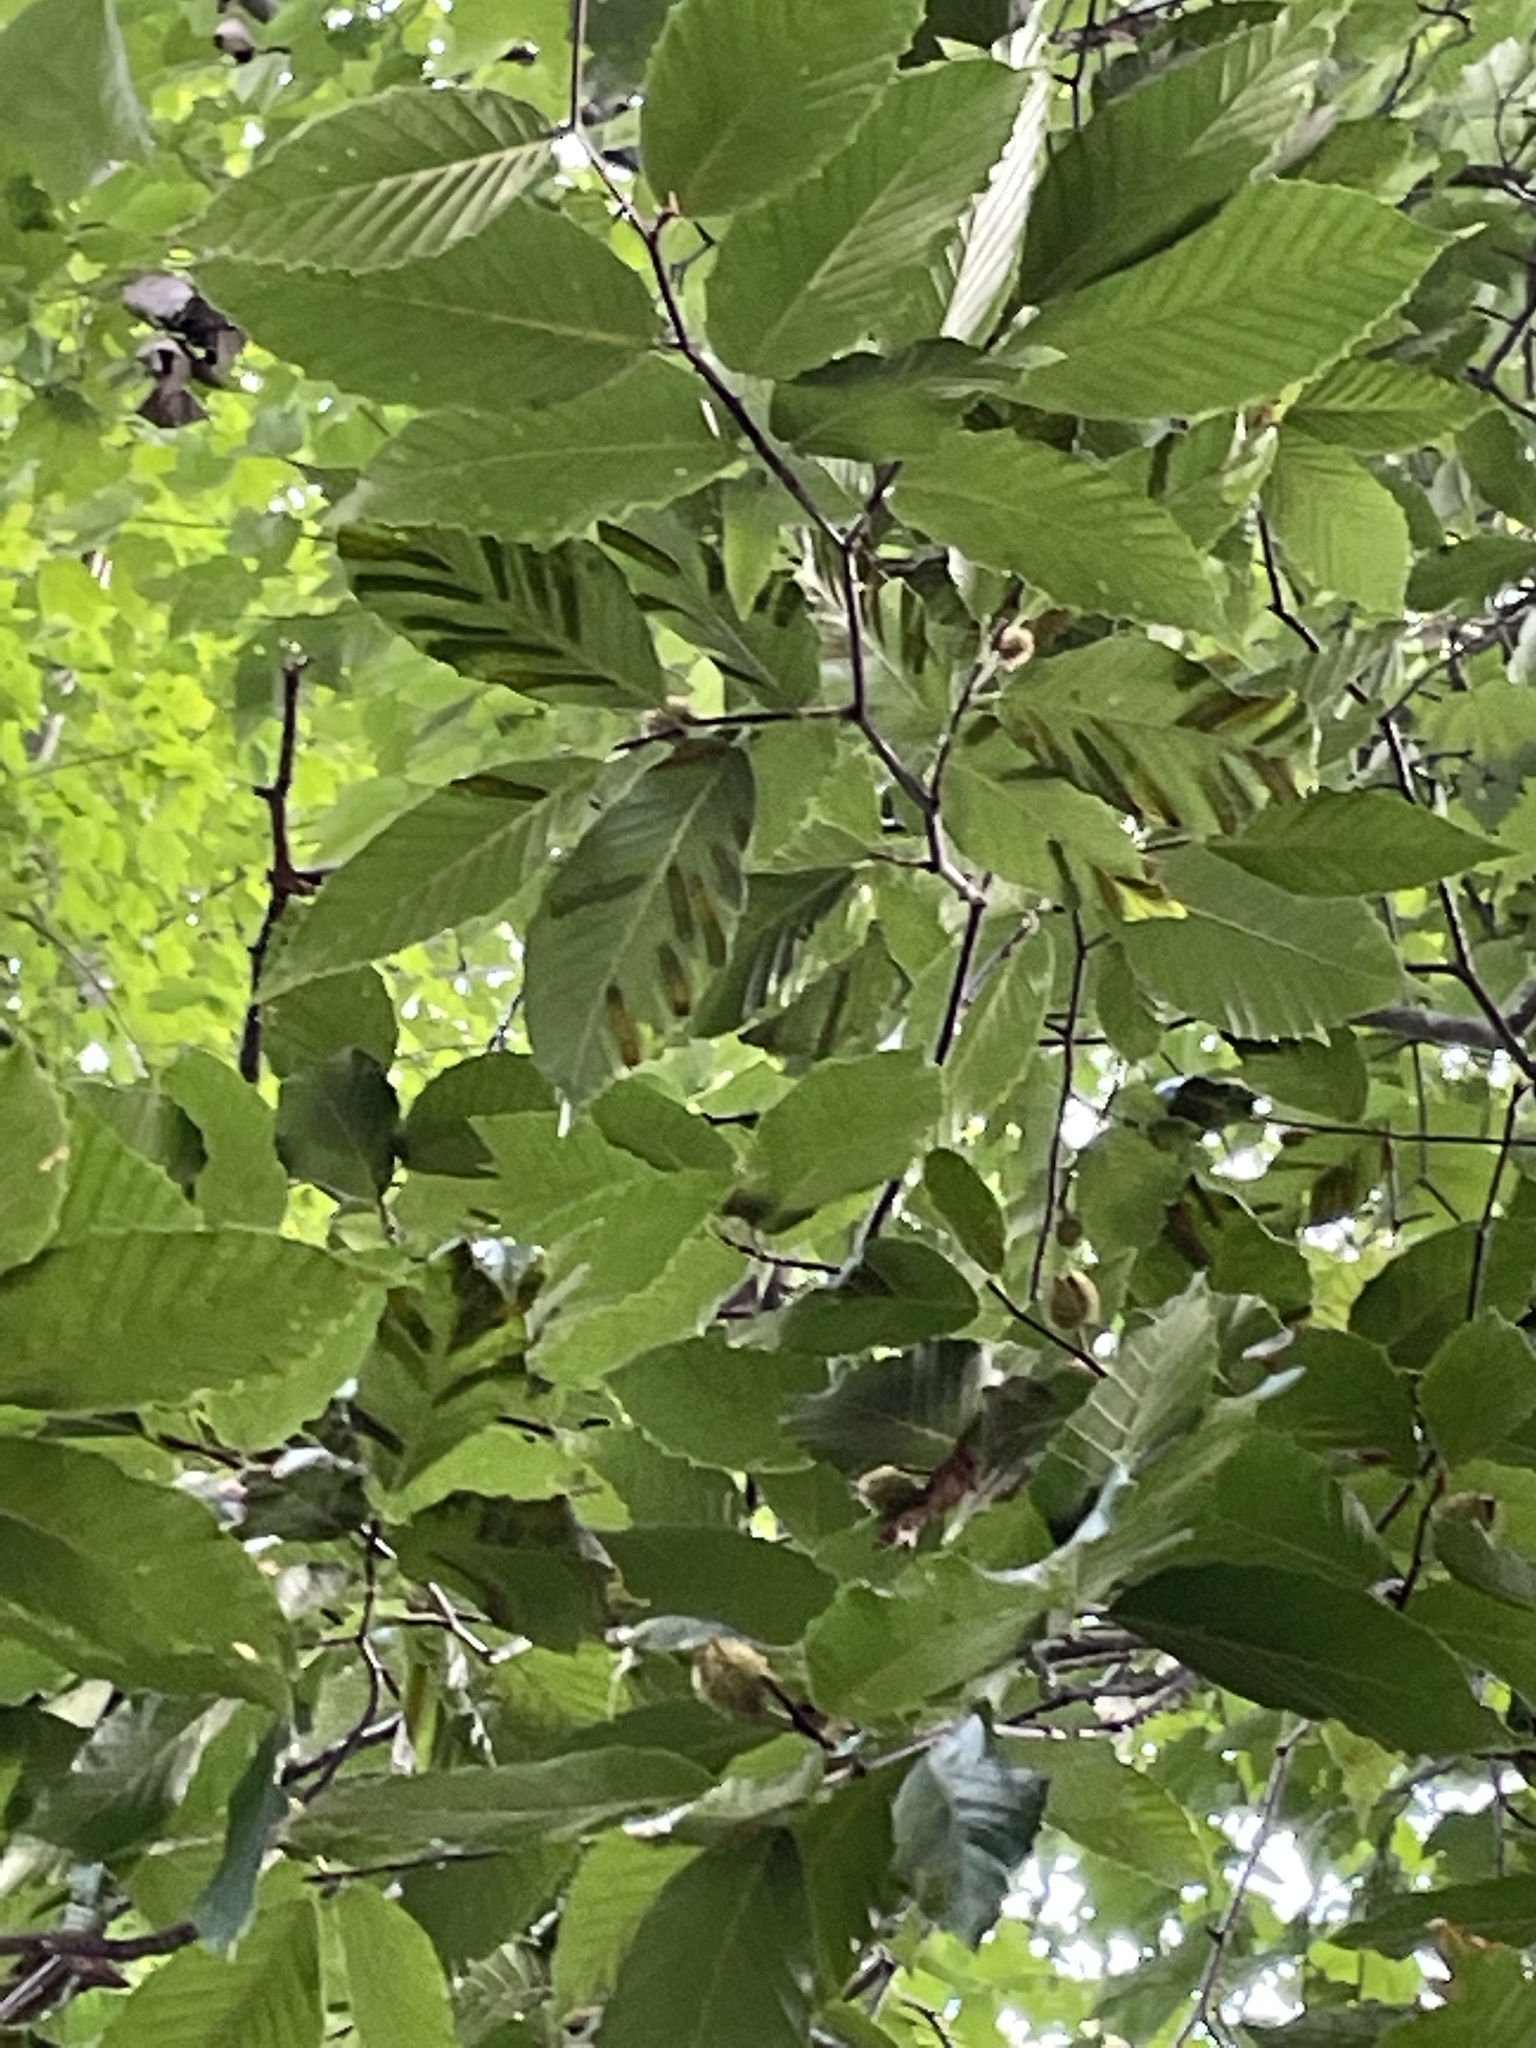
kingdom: Animalia
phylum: Nematoda
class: Chromadorea
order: Rhabditida
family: Anguinidae
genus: Litylenchus
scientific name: Litylenchus crenatae
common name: Beech leaf disease
